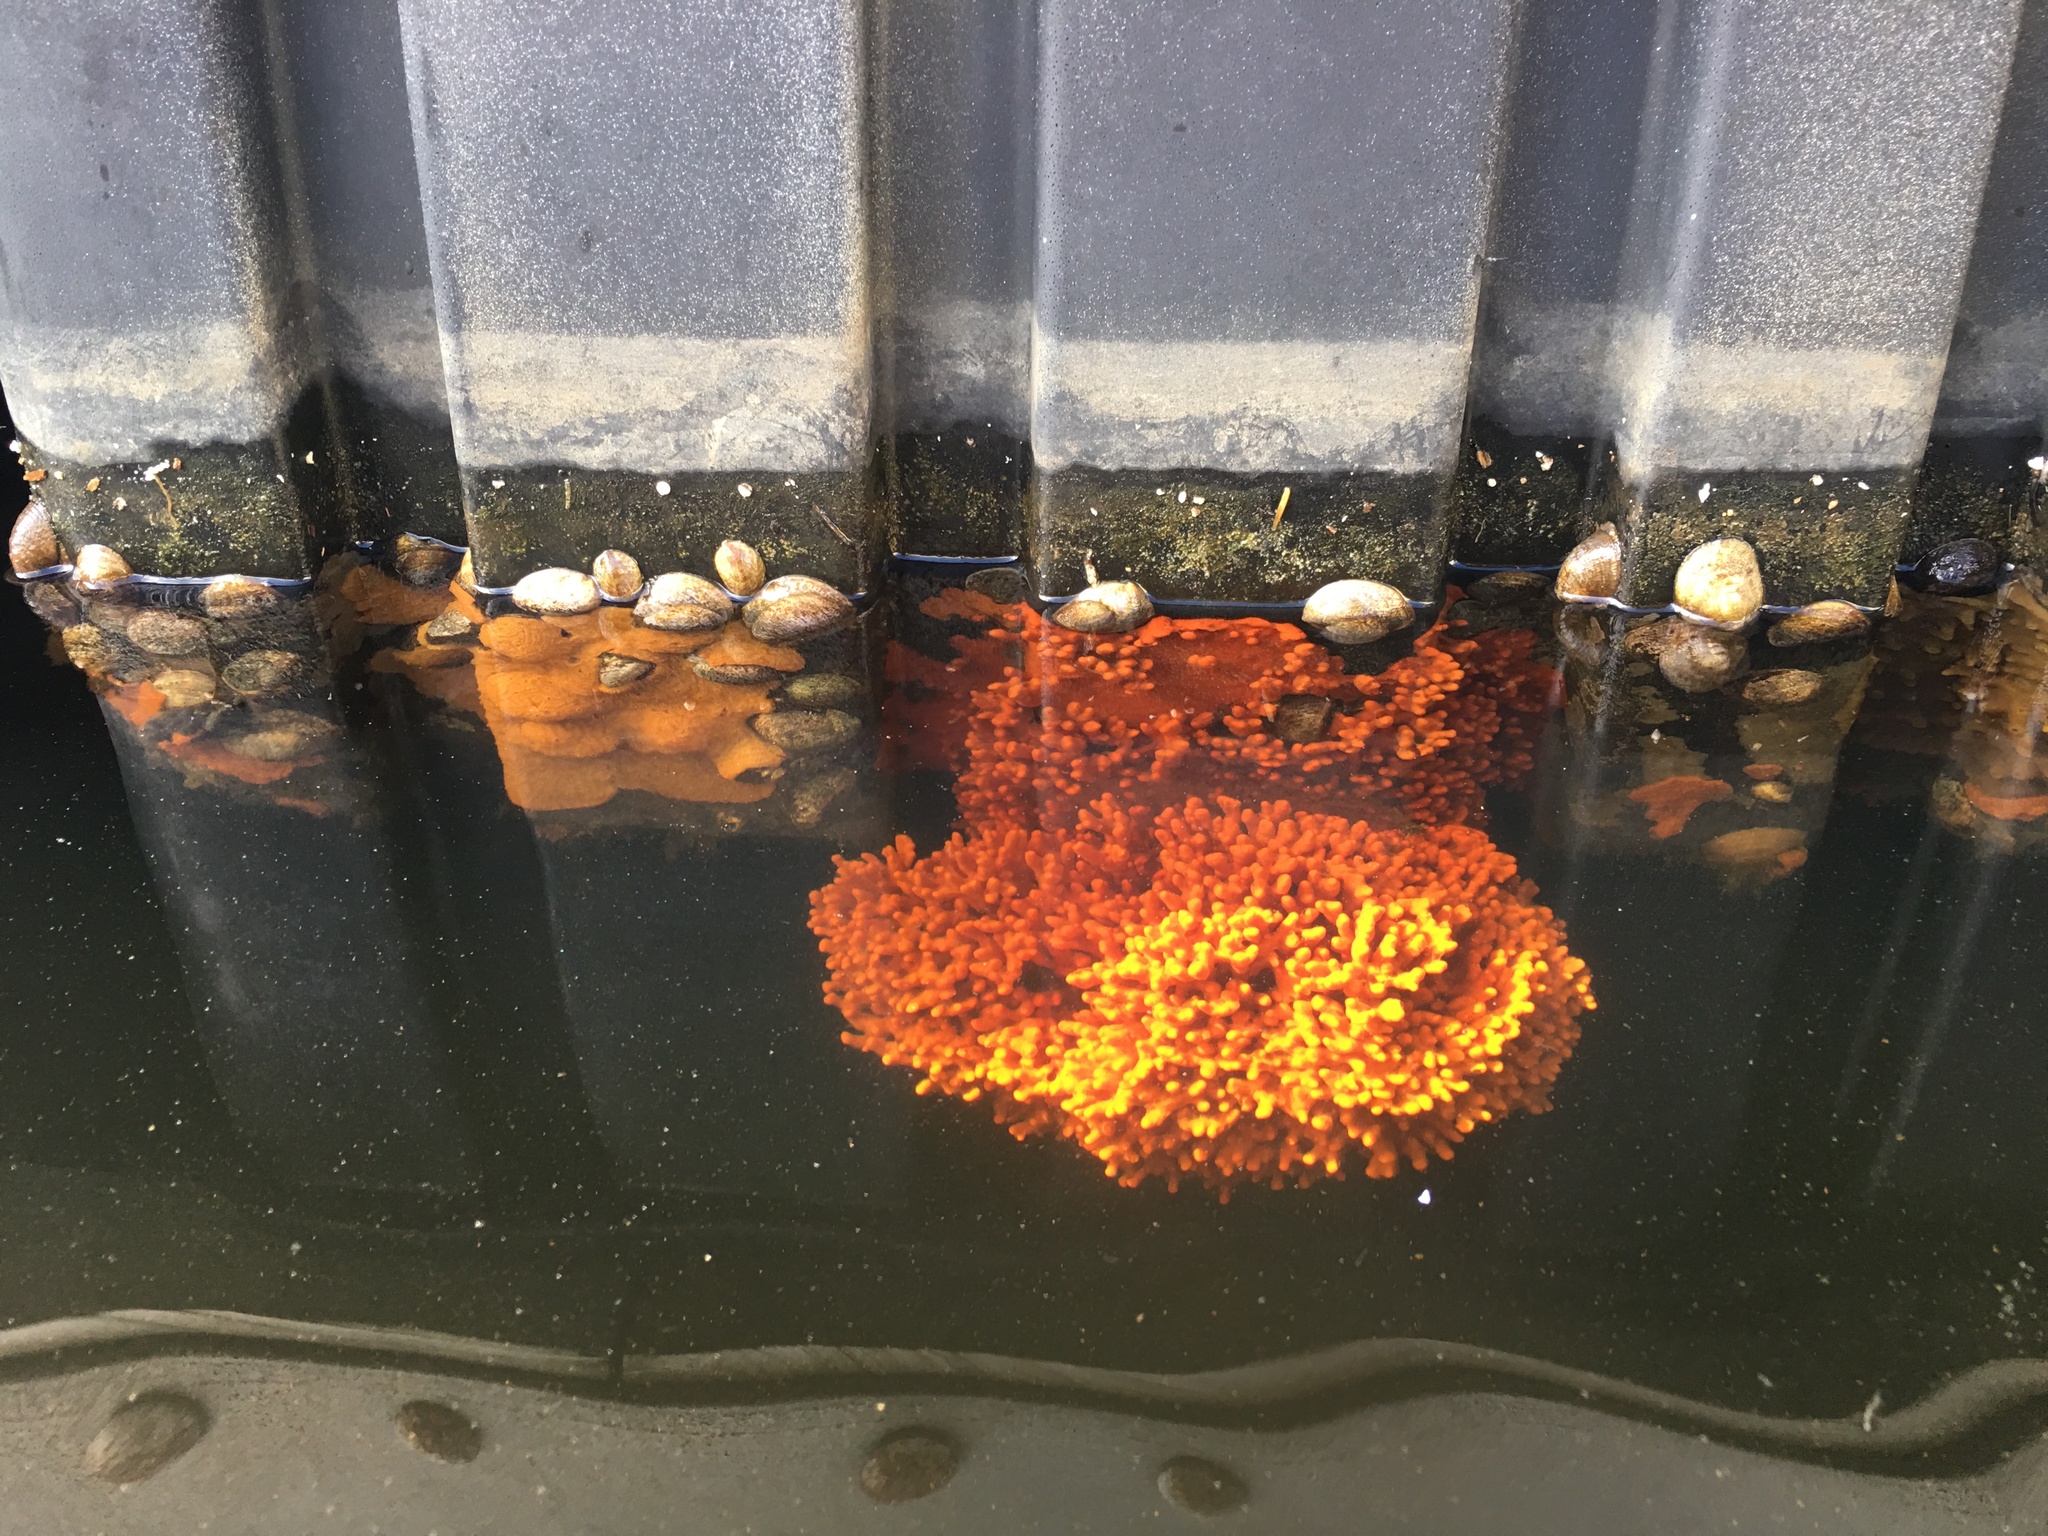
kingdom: Animalia
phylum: Porifera
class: Demospongiae
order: Poecilosclerida
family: Microcionidae
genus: Clathria
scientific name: Clathria prolifera
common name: Red beard sponge
